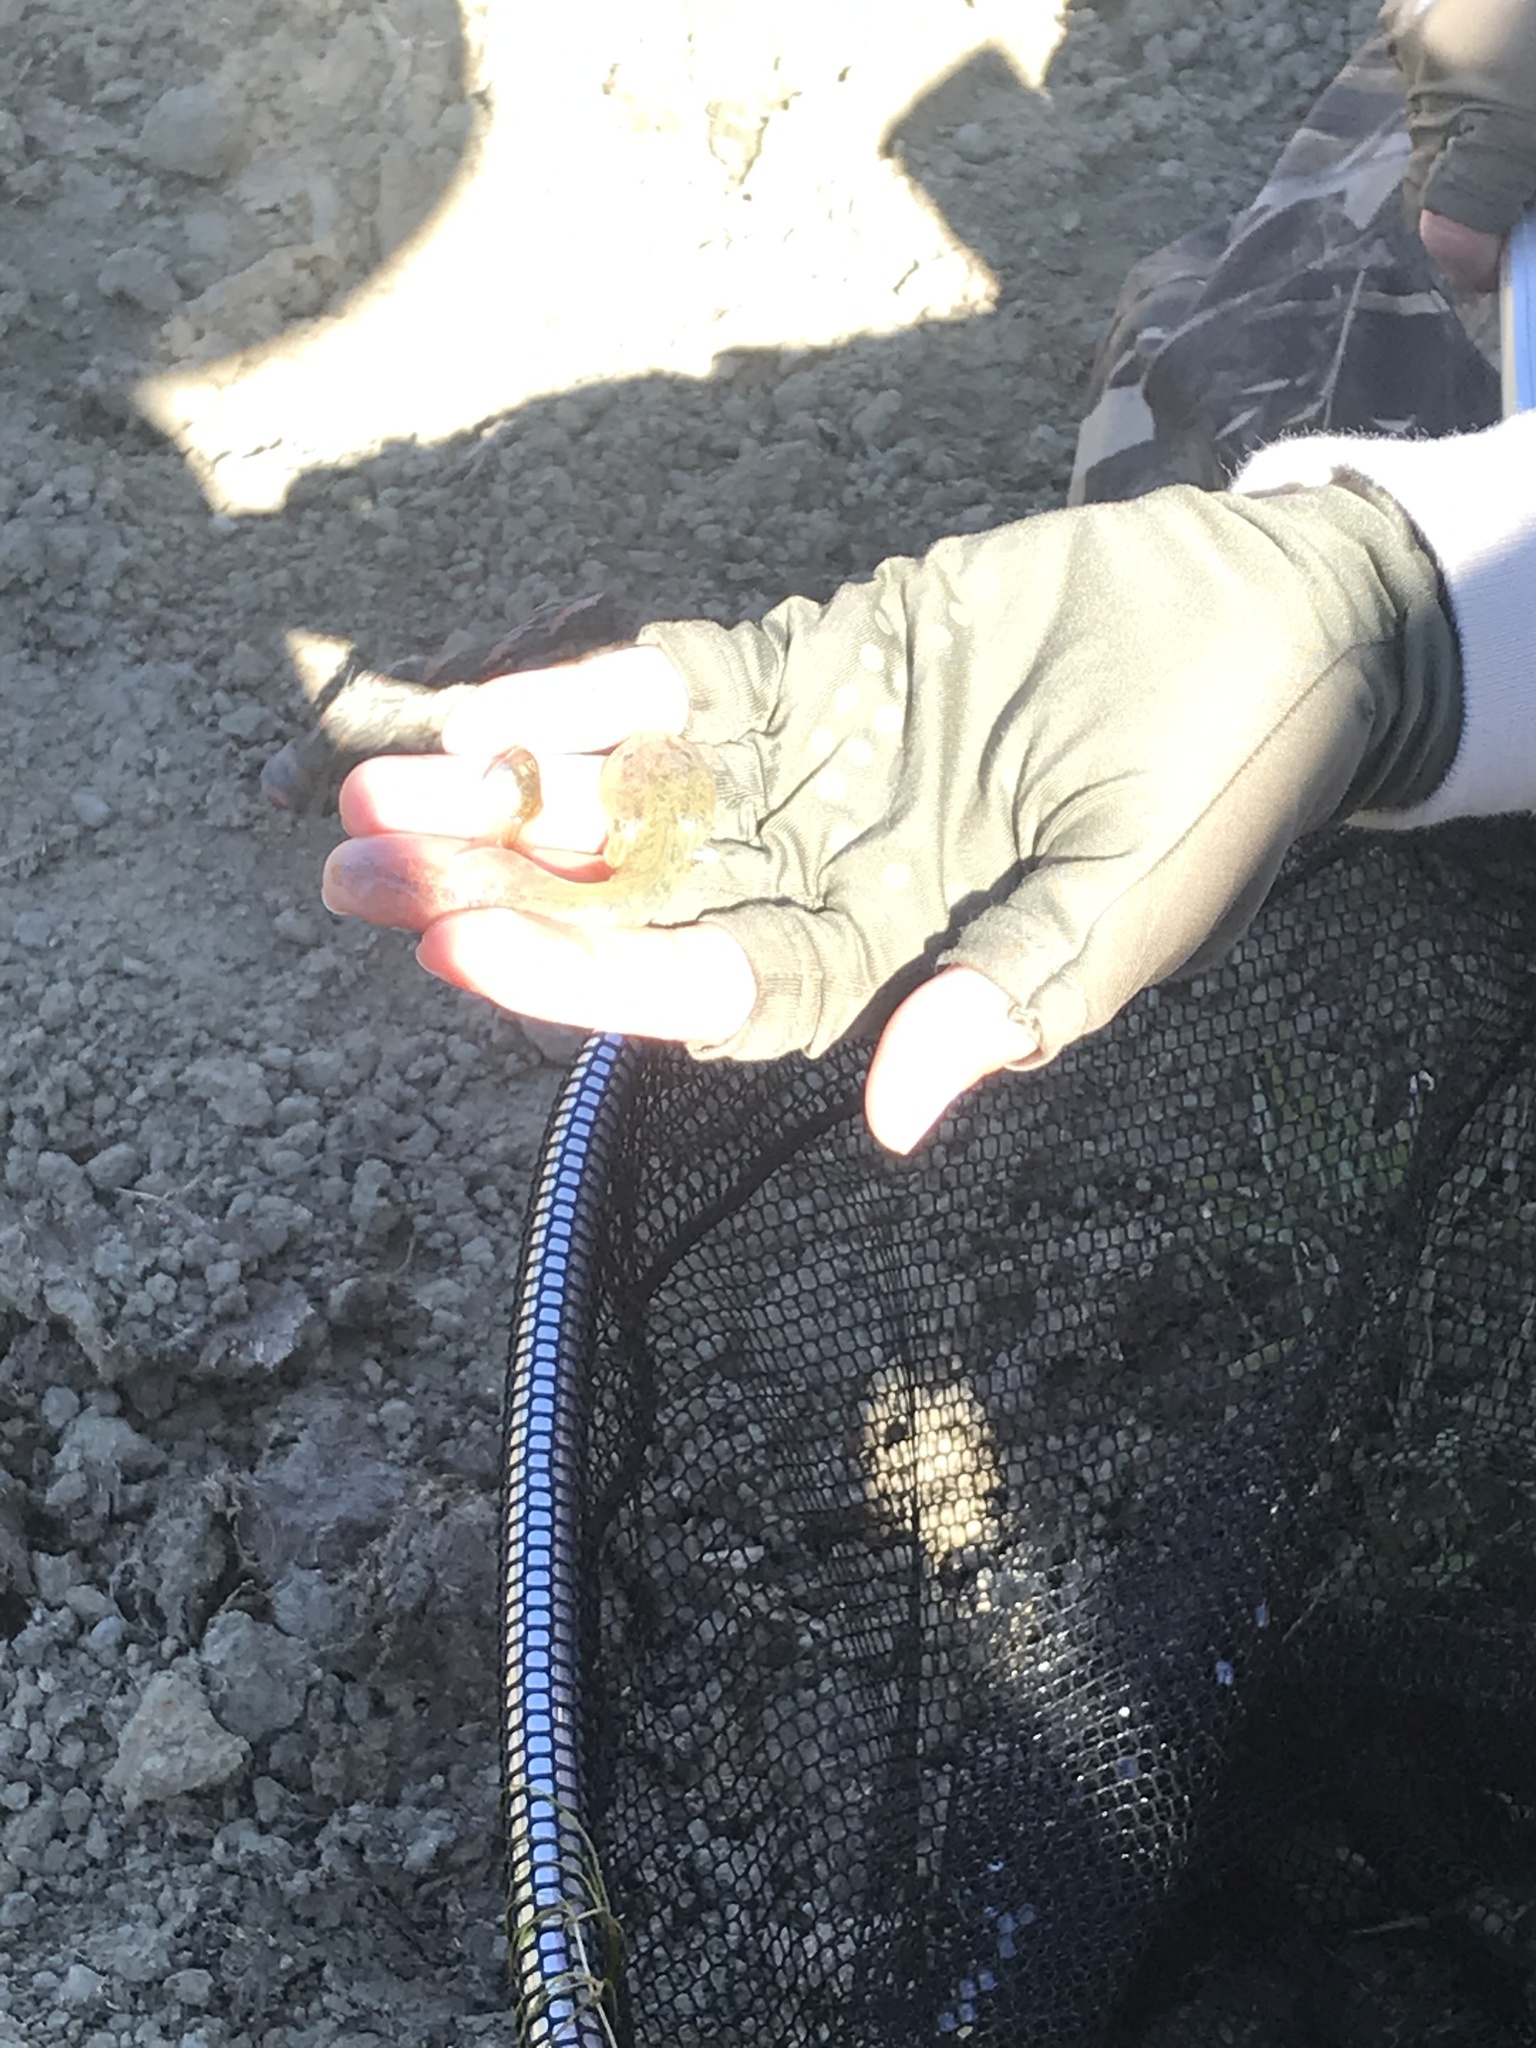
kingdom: Animalia
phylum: Chordata
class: Amphibia
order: Caudata
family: Ambystomatidae
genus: Ambystoma
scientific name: Ambystoma californiense
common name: California tiger salamander
